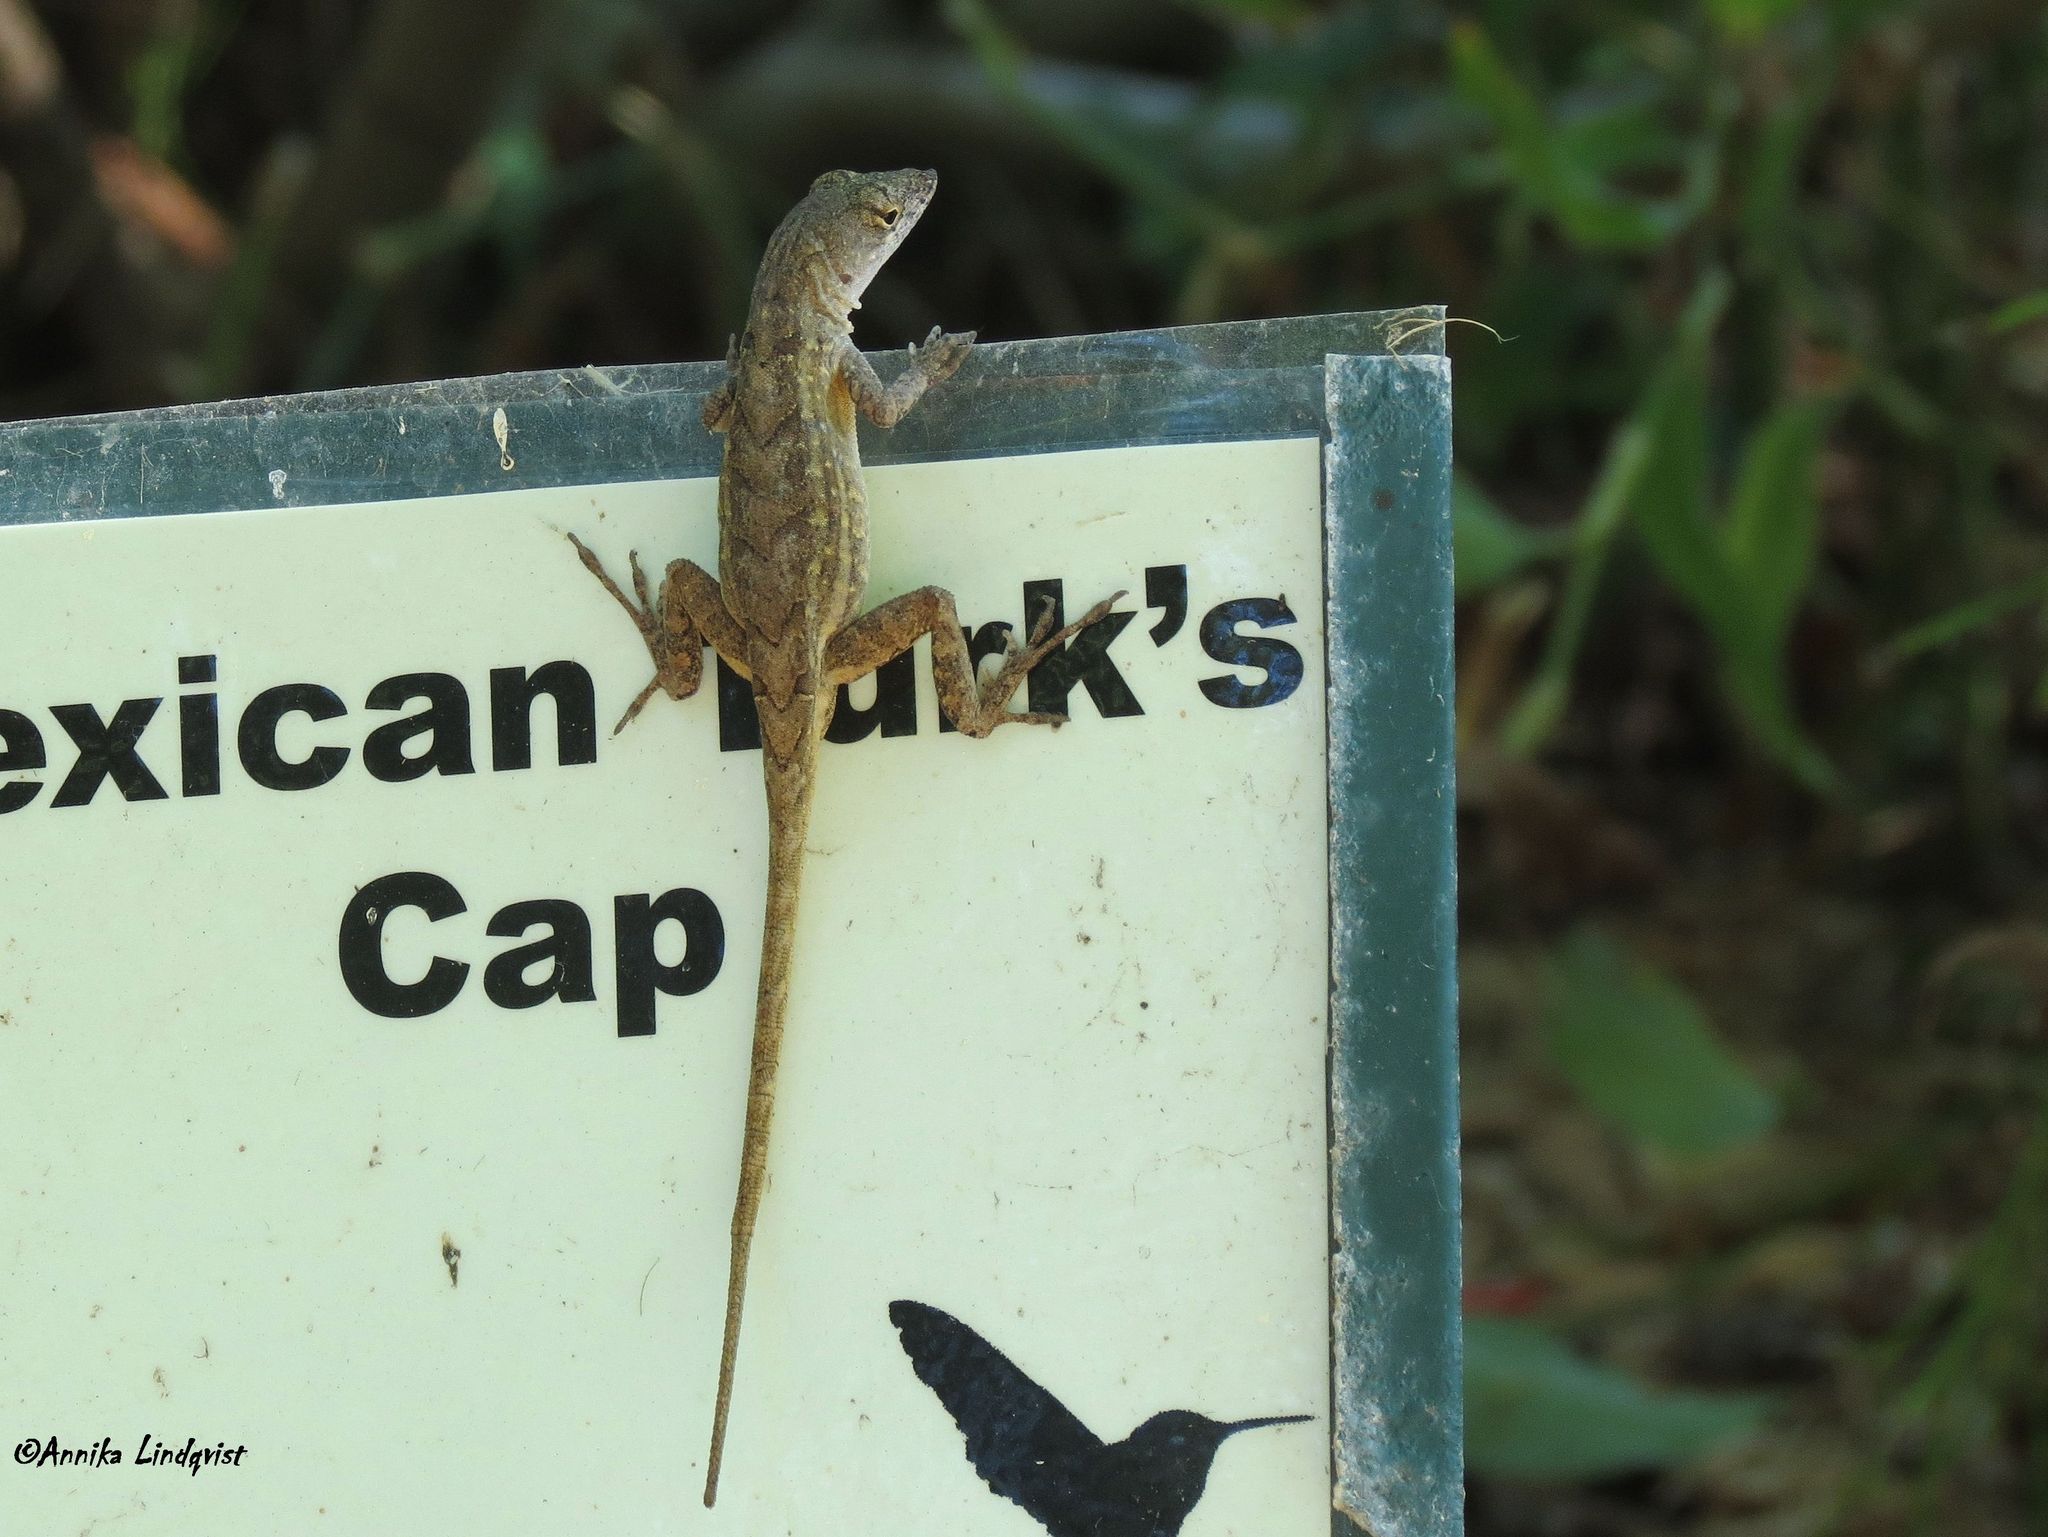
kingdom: Animalia
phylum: Chordata
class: Squamata
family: Dactyloidae
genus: Anolis
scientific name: Anolis sagrei
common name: Brown anole
